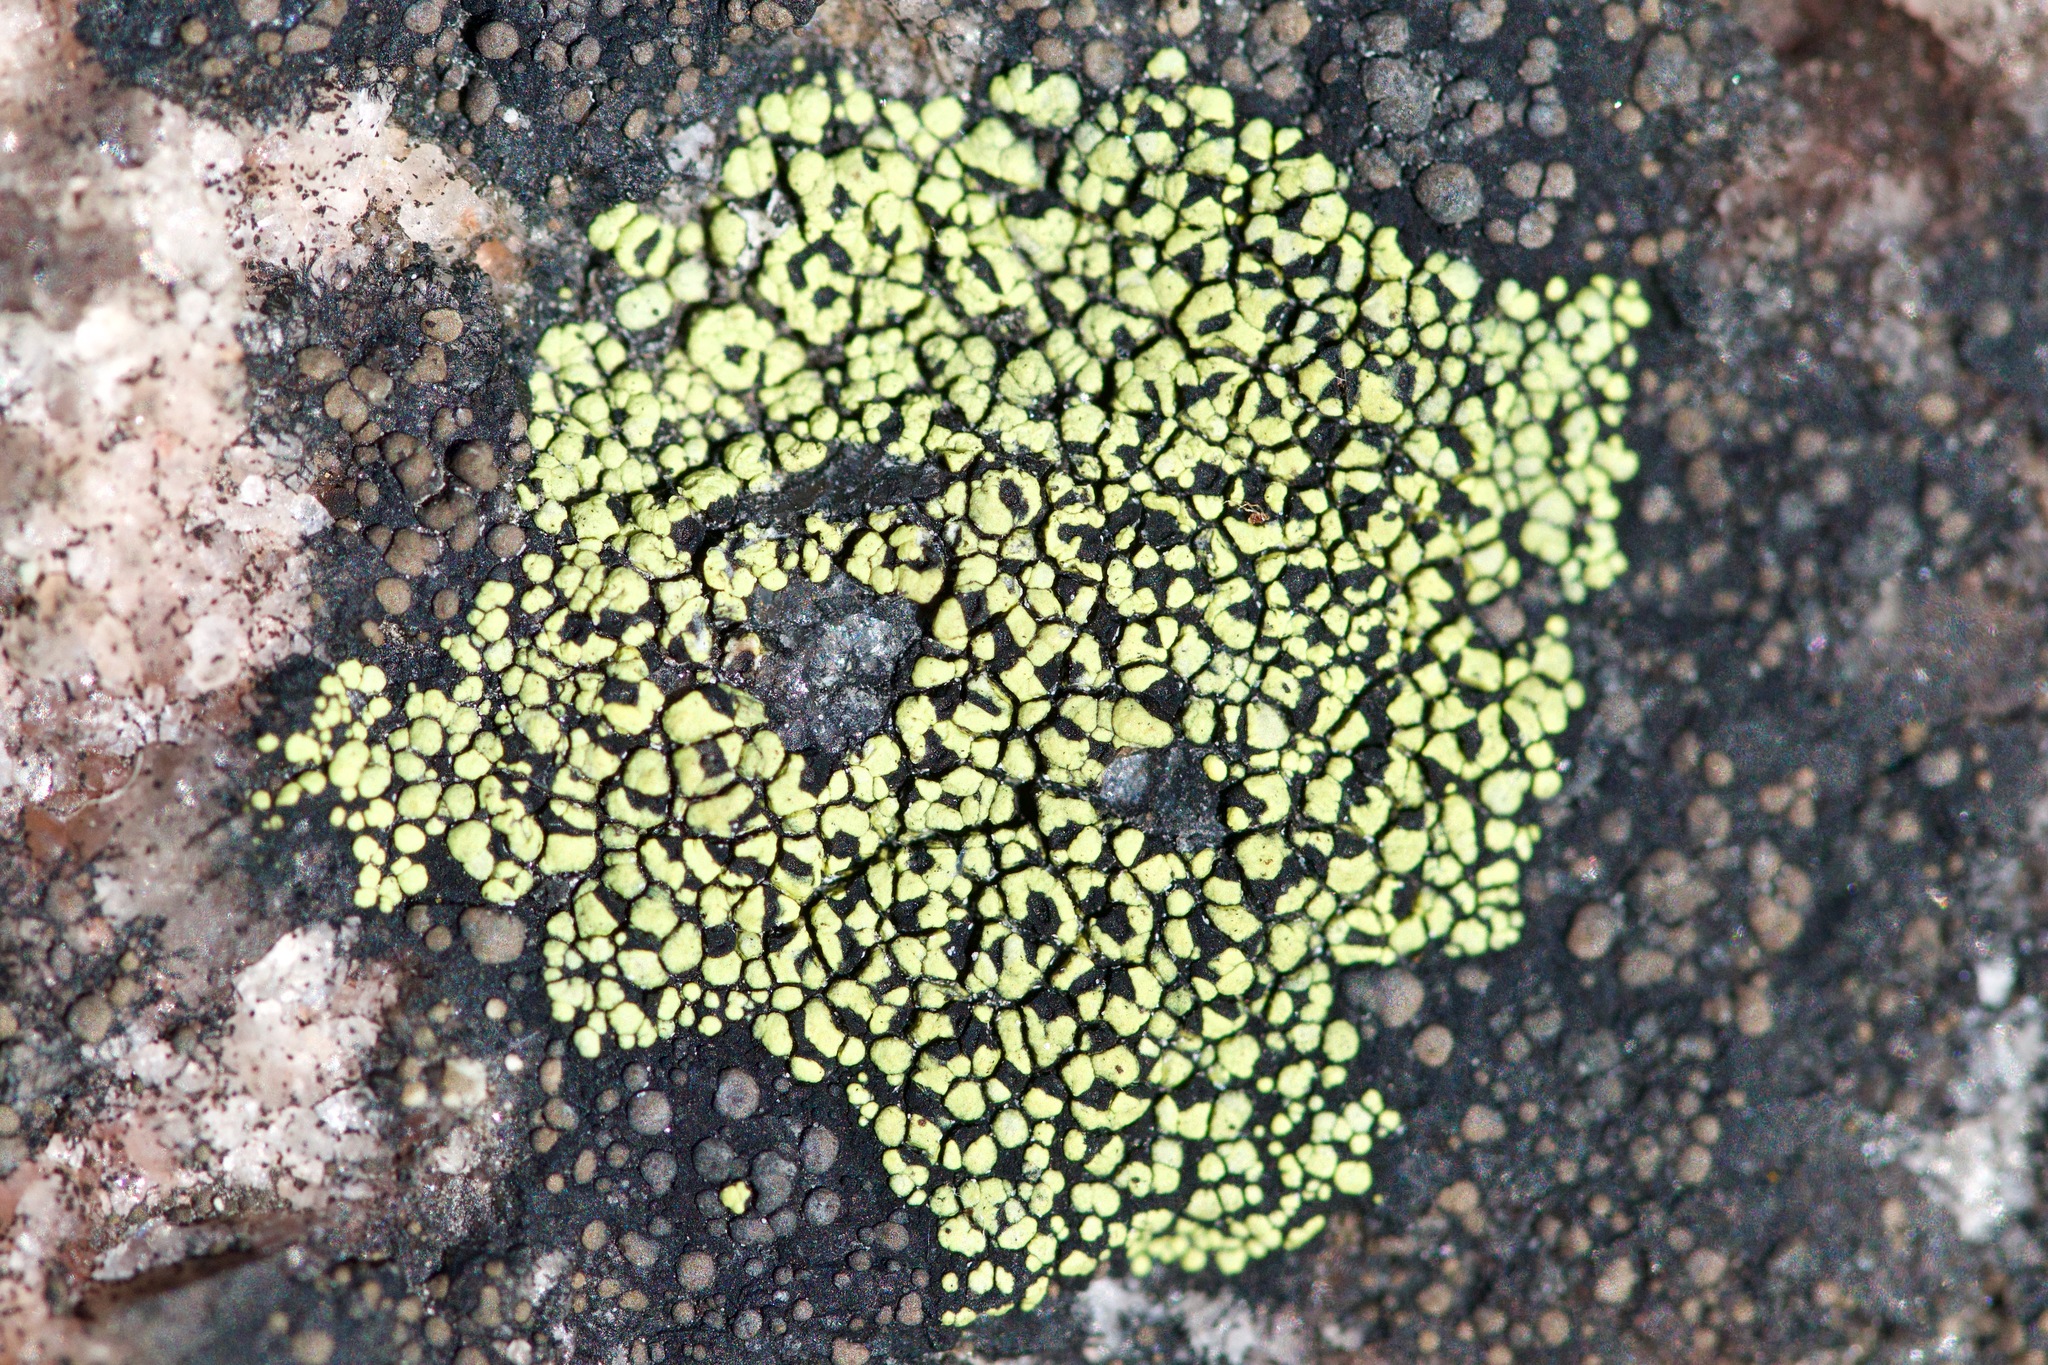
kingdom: Fungi
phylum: Ascomycota
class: Lecanoromycetes
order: Rhizocarpales
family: Rhizocarpaceae
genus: Rhizocarpon
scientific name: Rhizocarpon geographicum
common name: Yellow map lichen
